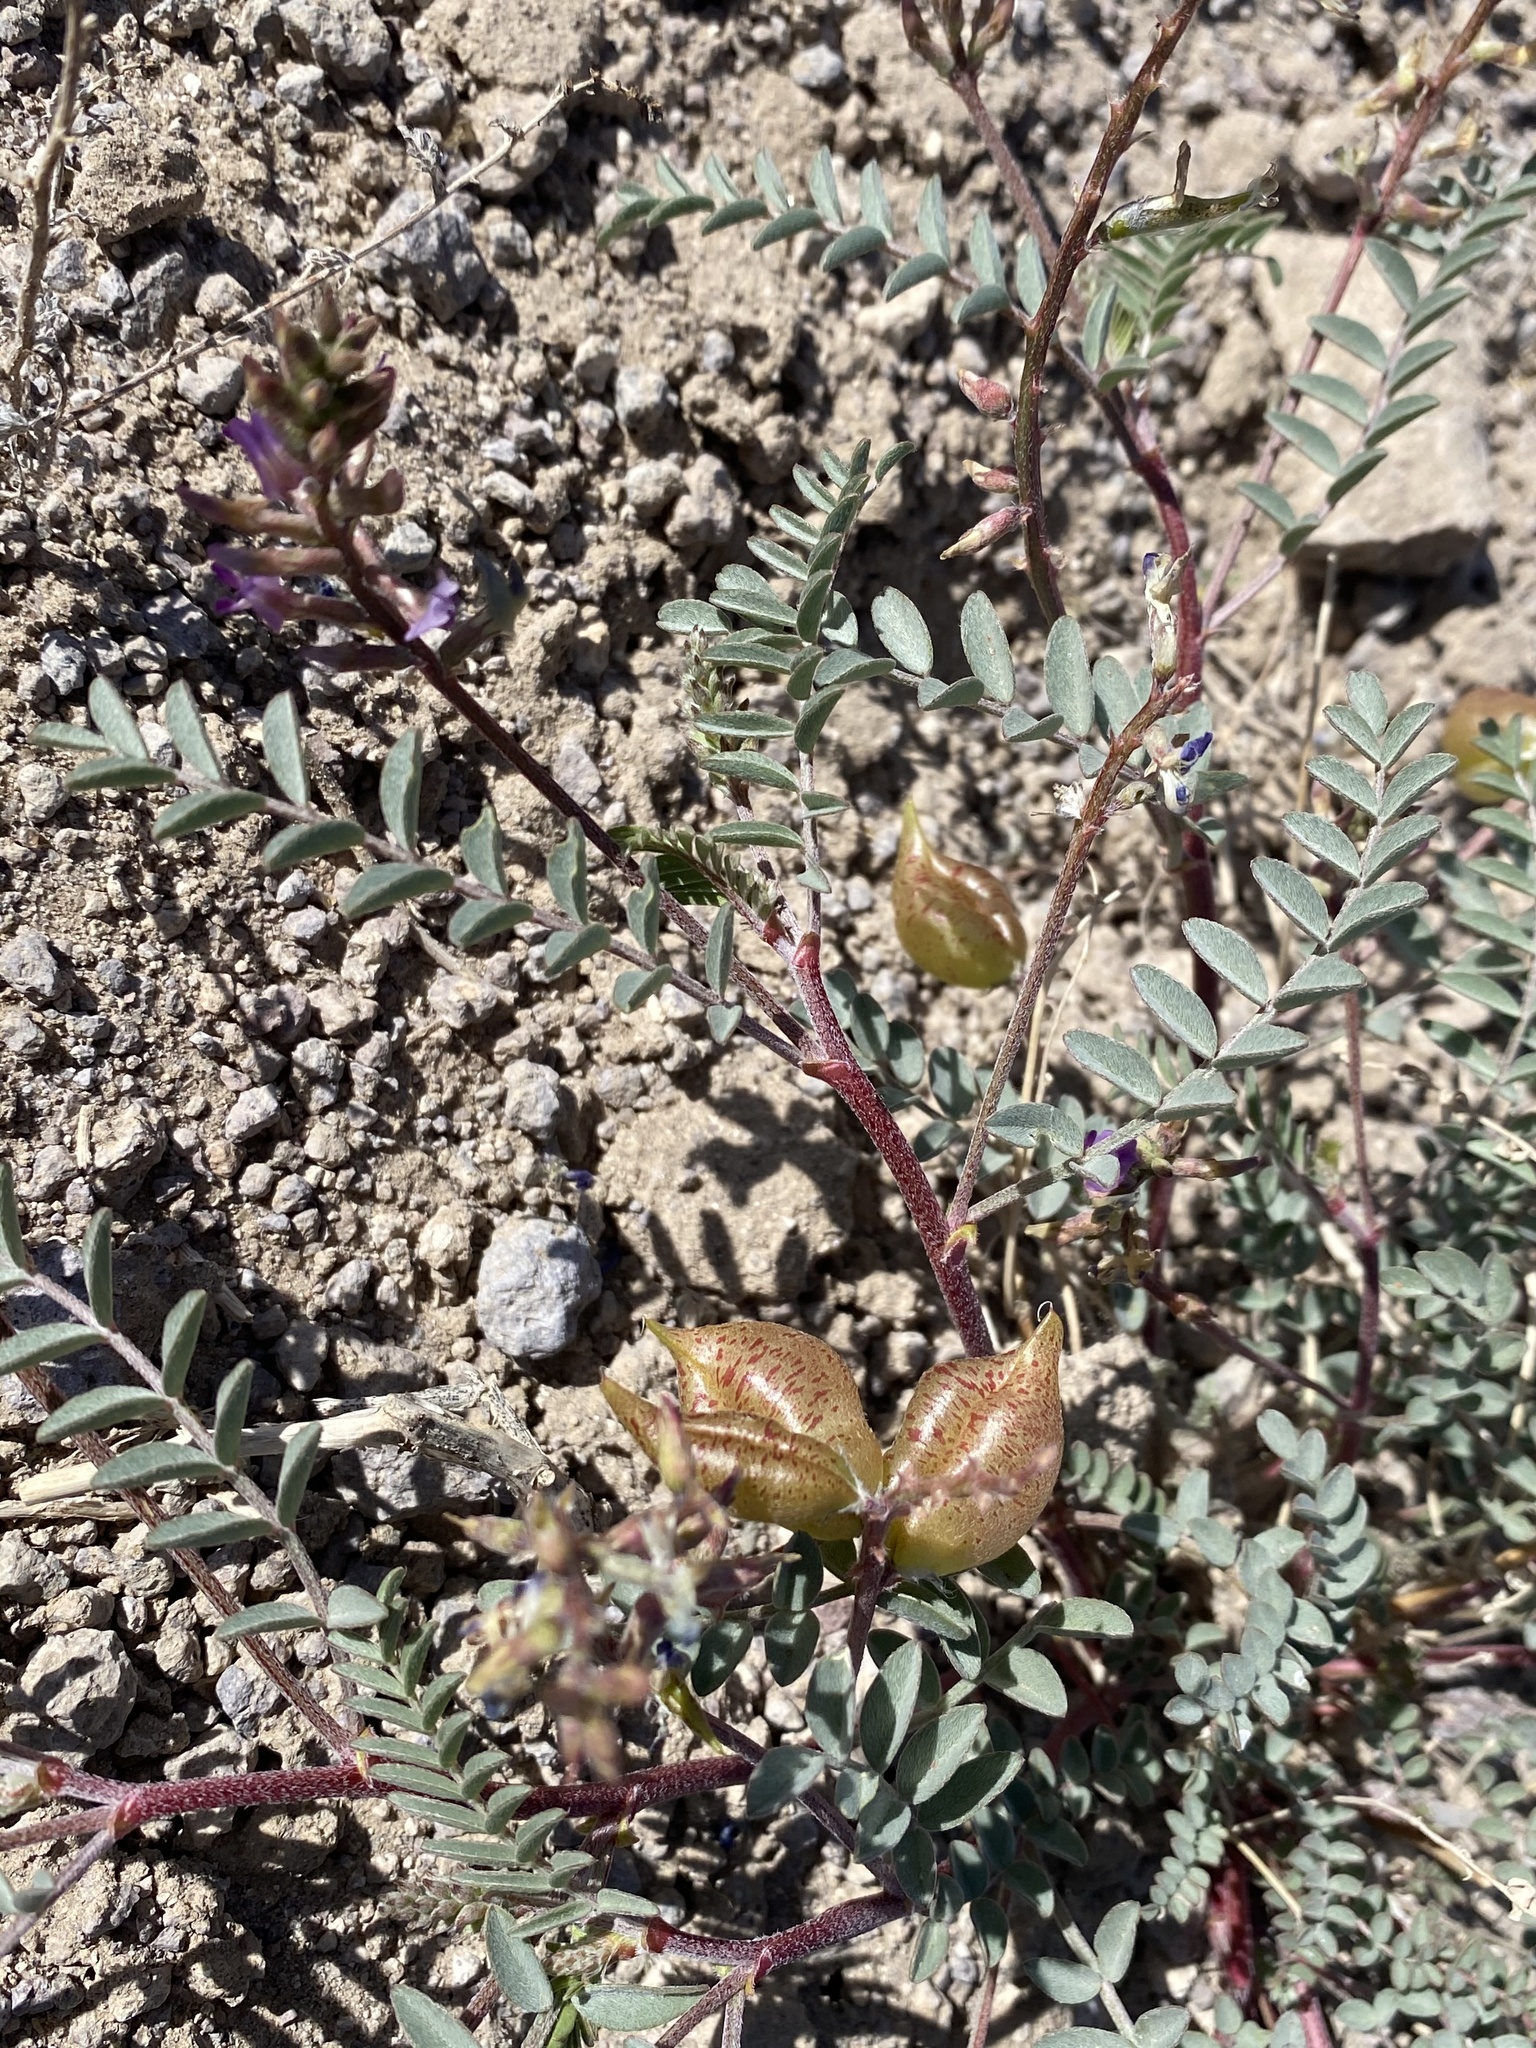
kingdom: Plantae
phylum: Tracheophyta
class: Magnoliopsida
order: Fabales
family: Fabaceae
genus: Astragalus
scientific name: Astragalus lentiginosus
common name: Freckled milkvetch
